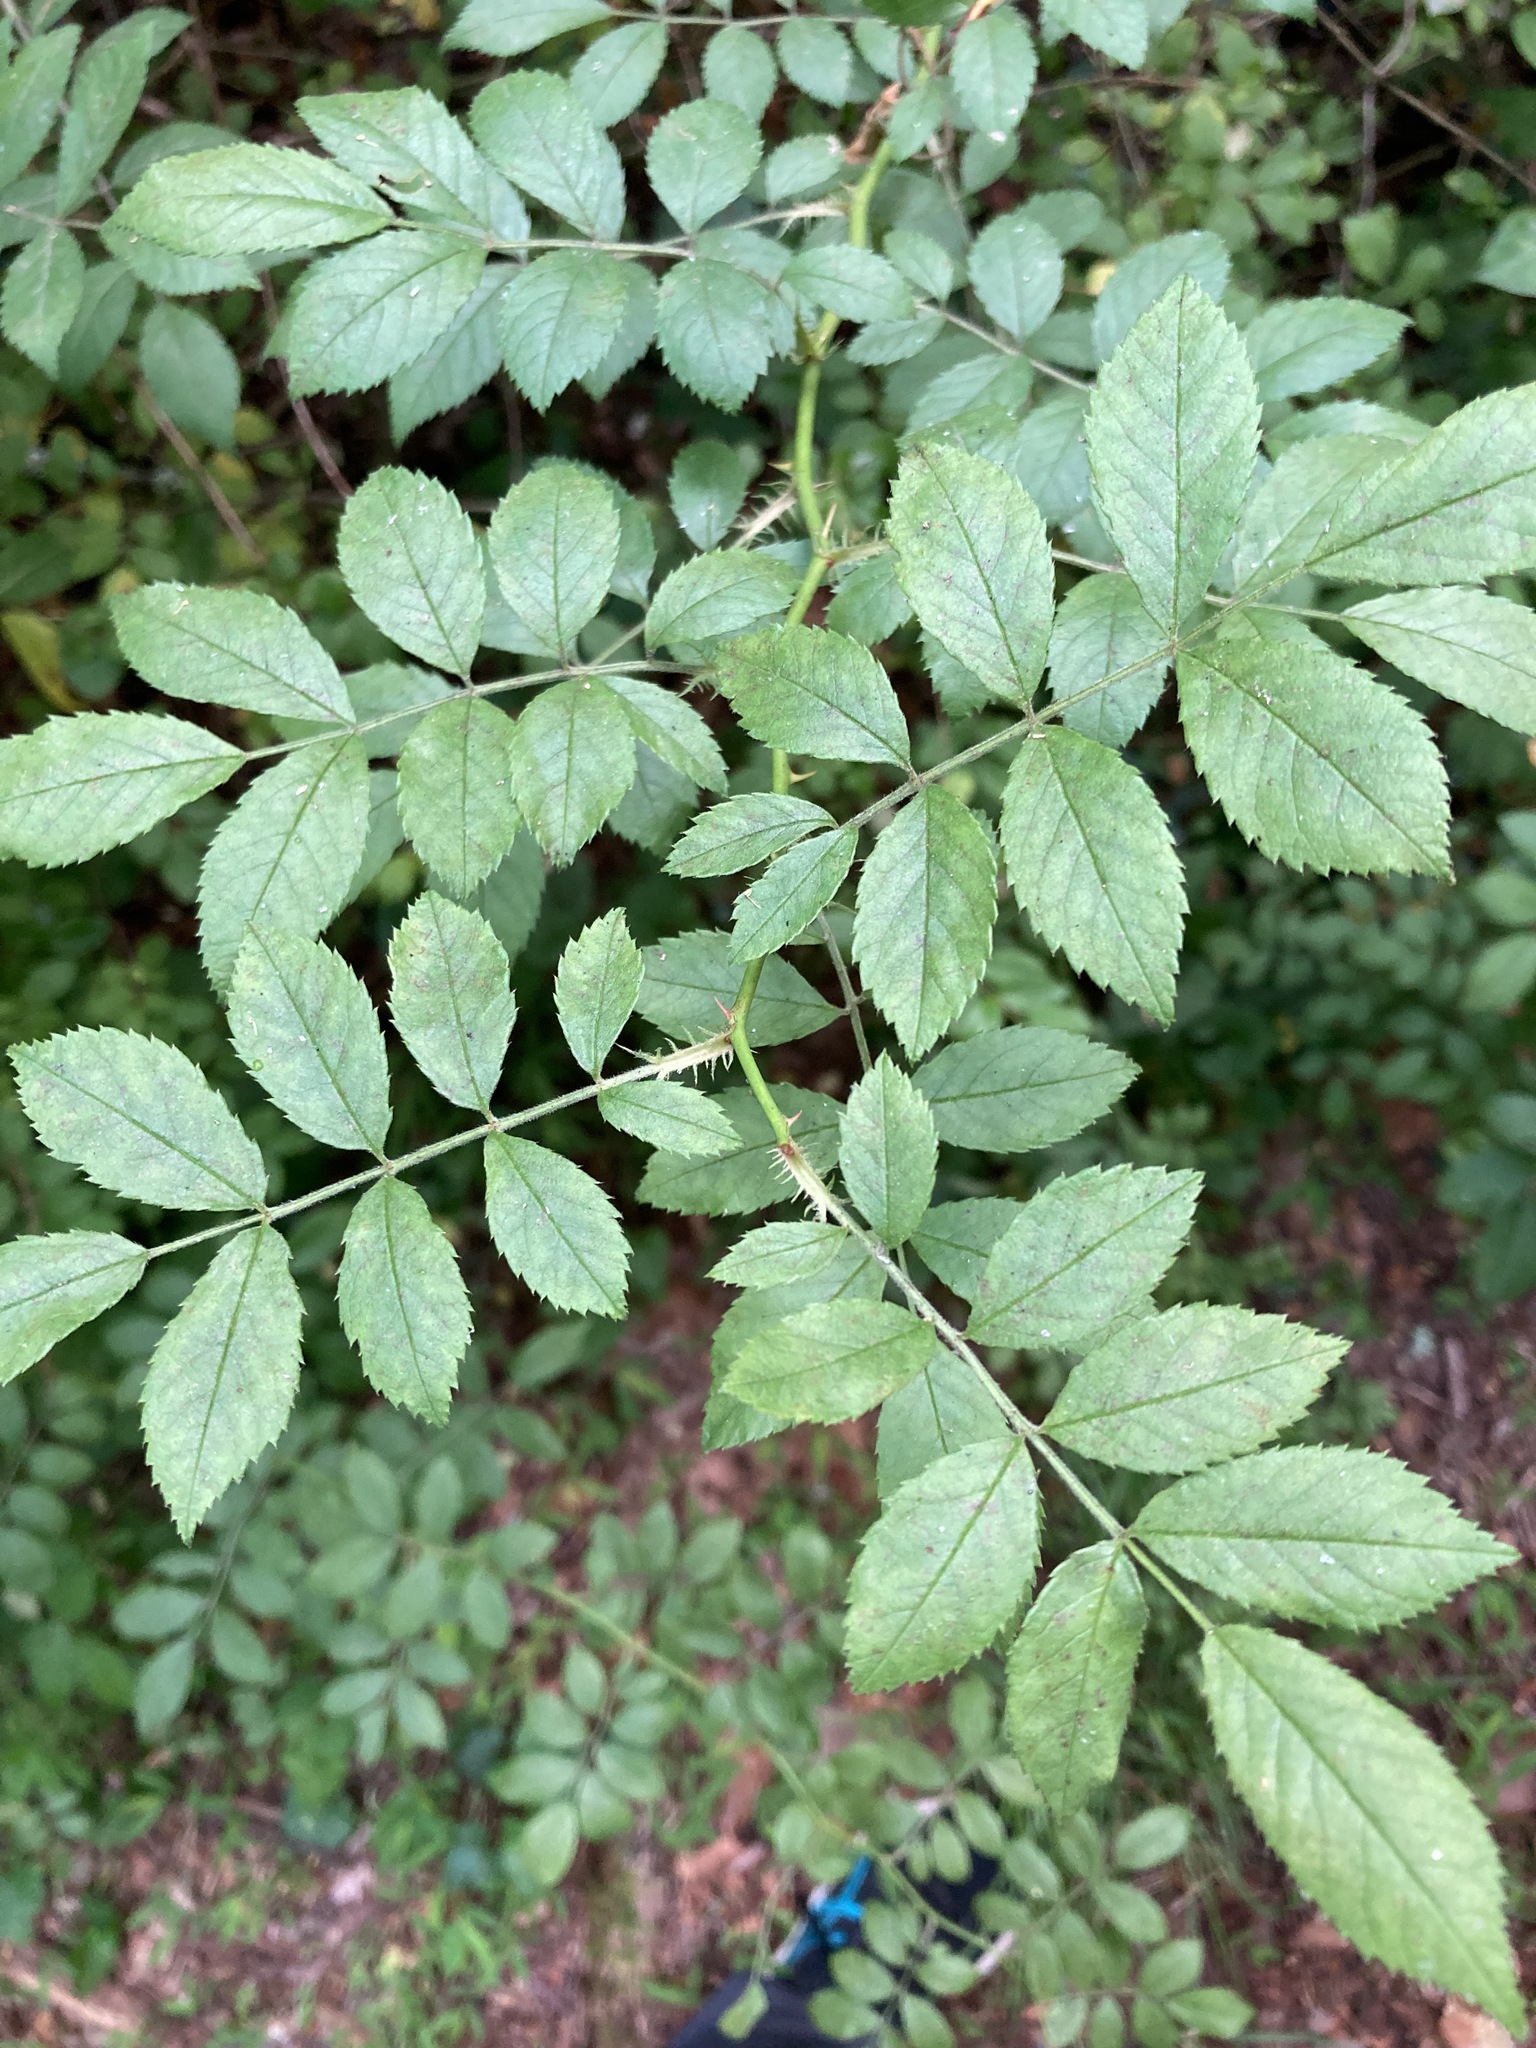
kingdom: Plantae
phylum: Tracheophyta
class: Magnoliopsida
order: Rosales
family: Rosaceae
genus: Rosa
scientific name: Rosa multiflora
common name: Multiflora rose
